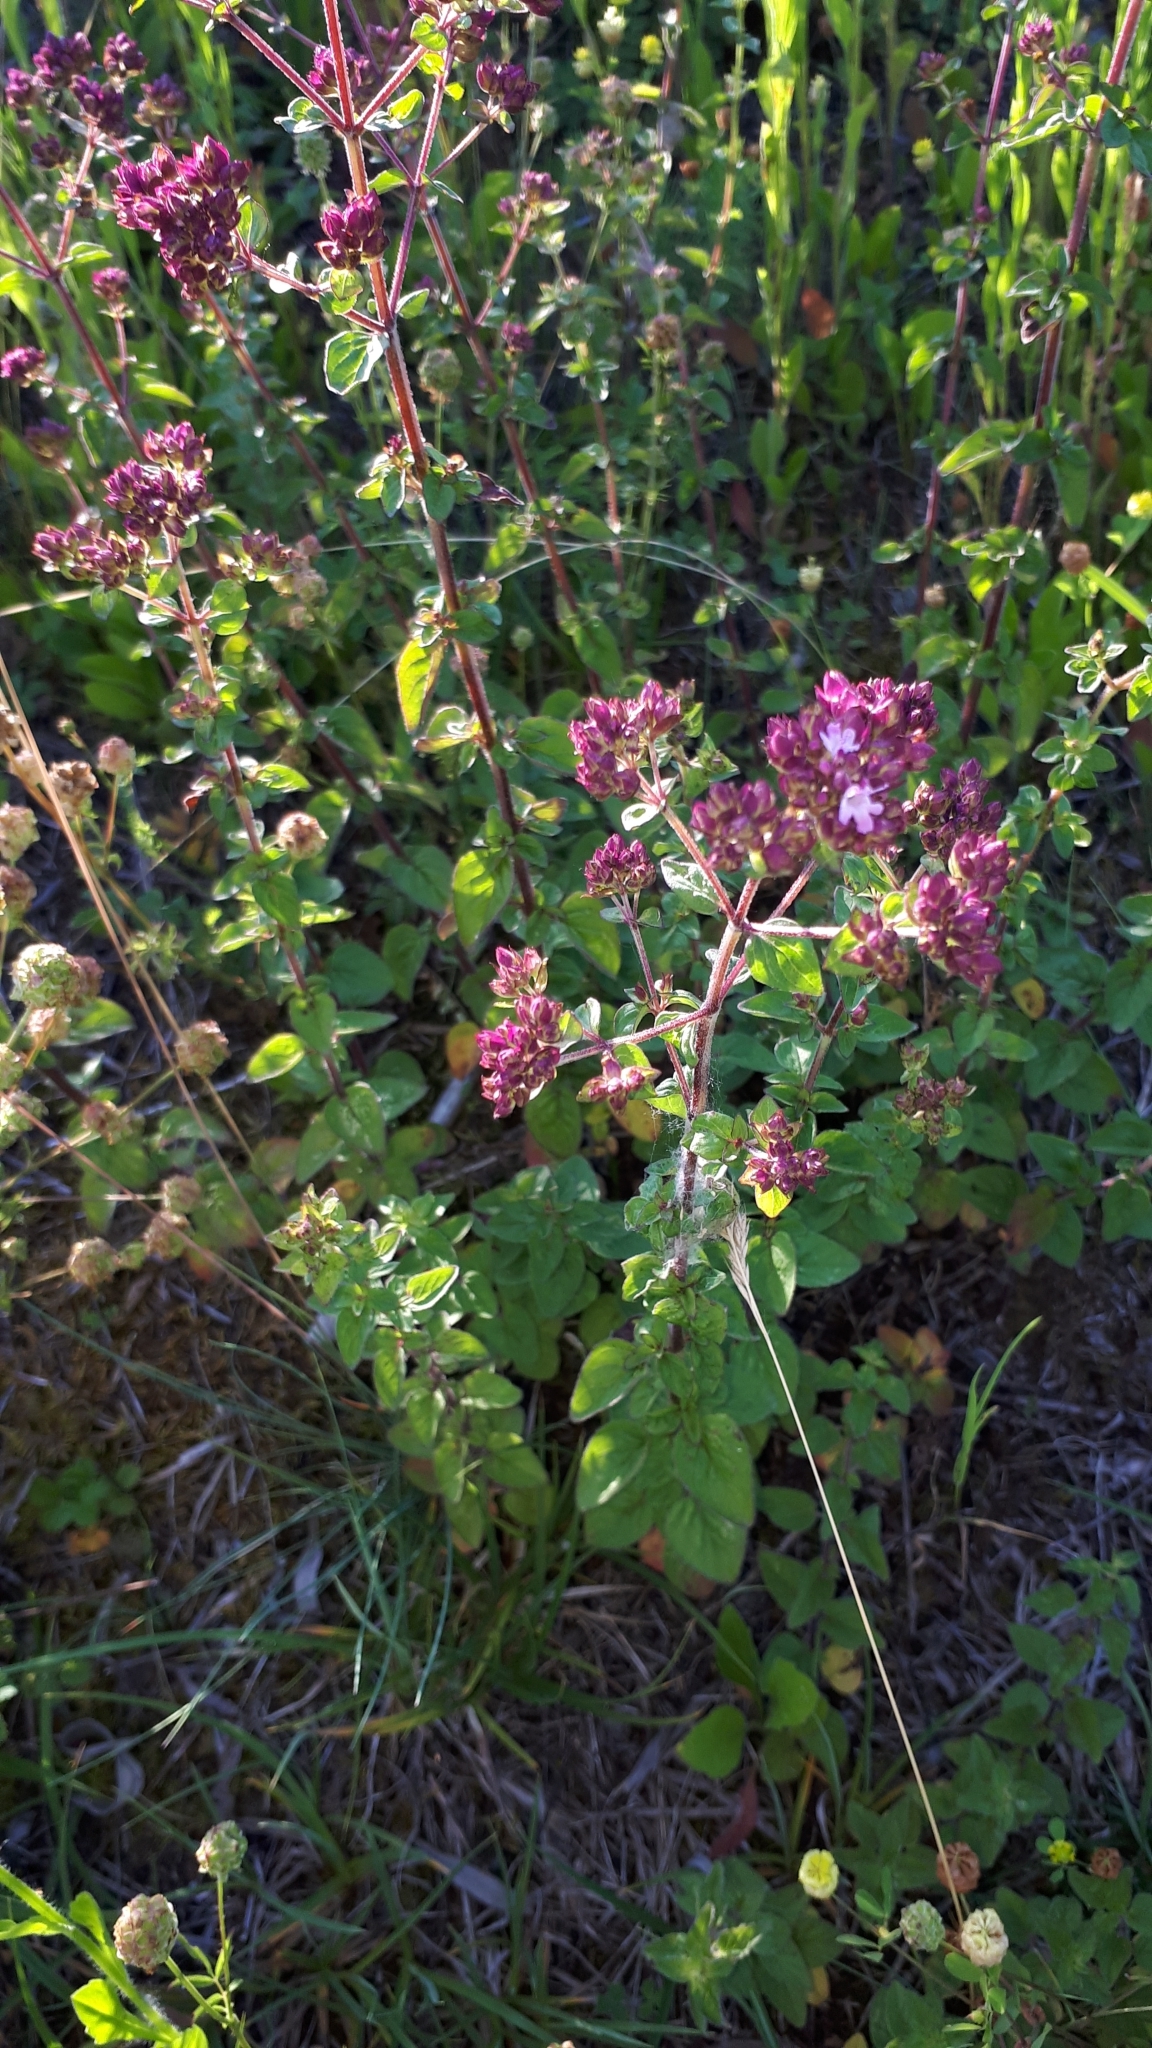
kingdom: Plantae
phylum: Tracheophyta
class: Magnoliopsida
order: Lamiales
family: Lamiaceae
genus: Origanum
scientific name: Origanum vulgare
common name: Wild marjoram
